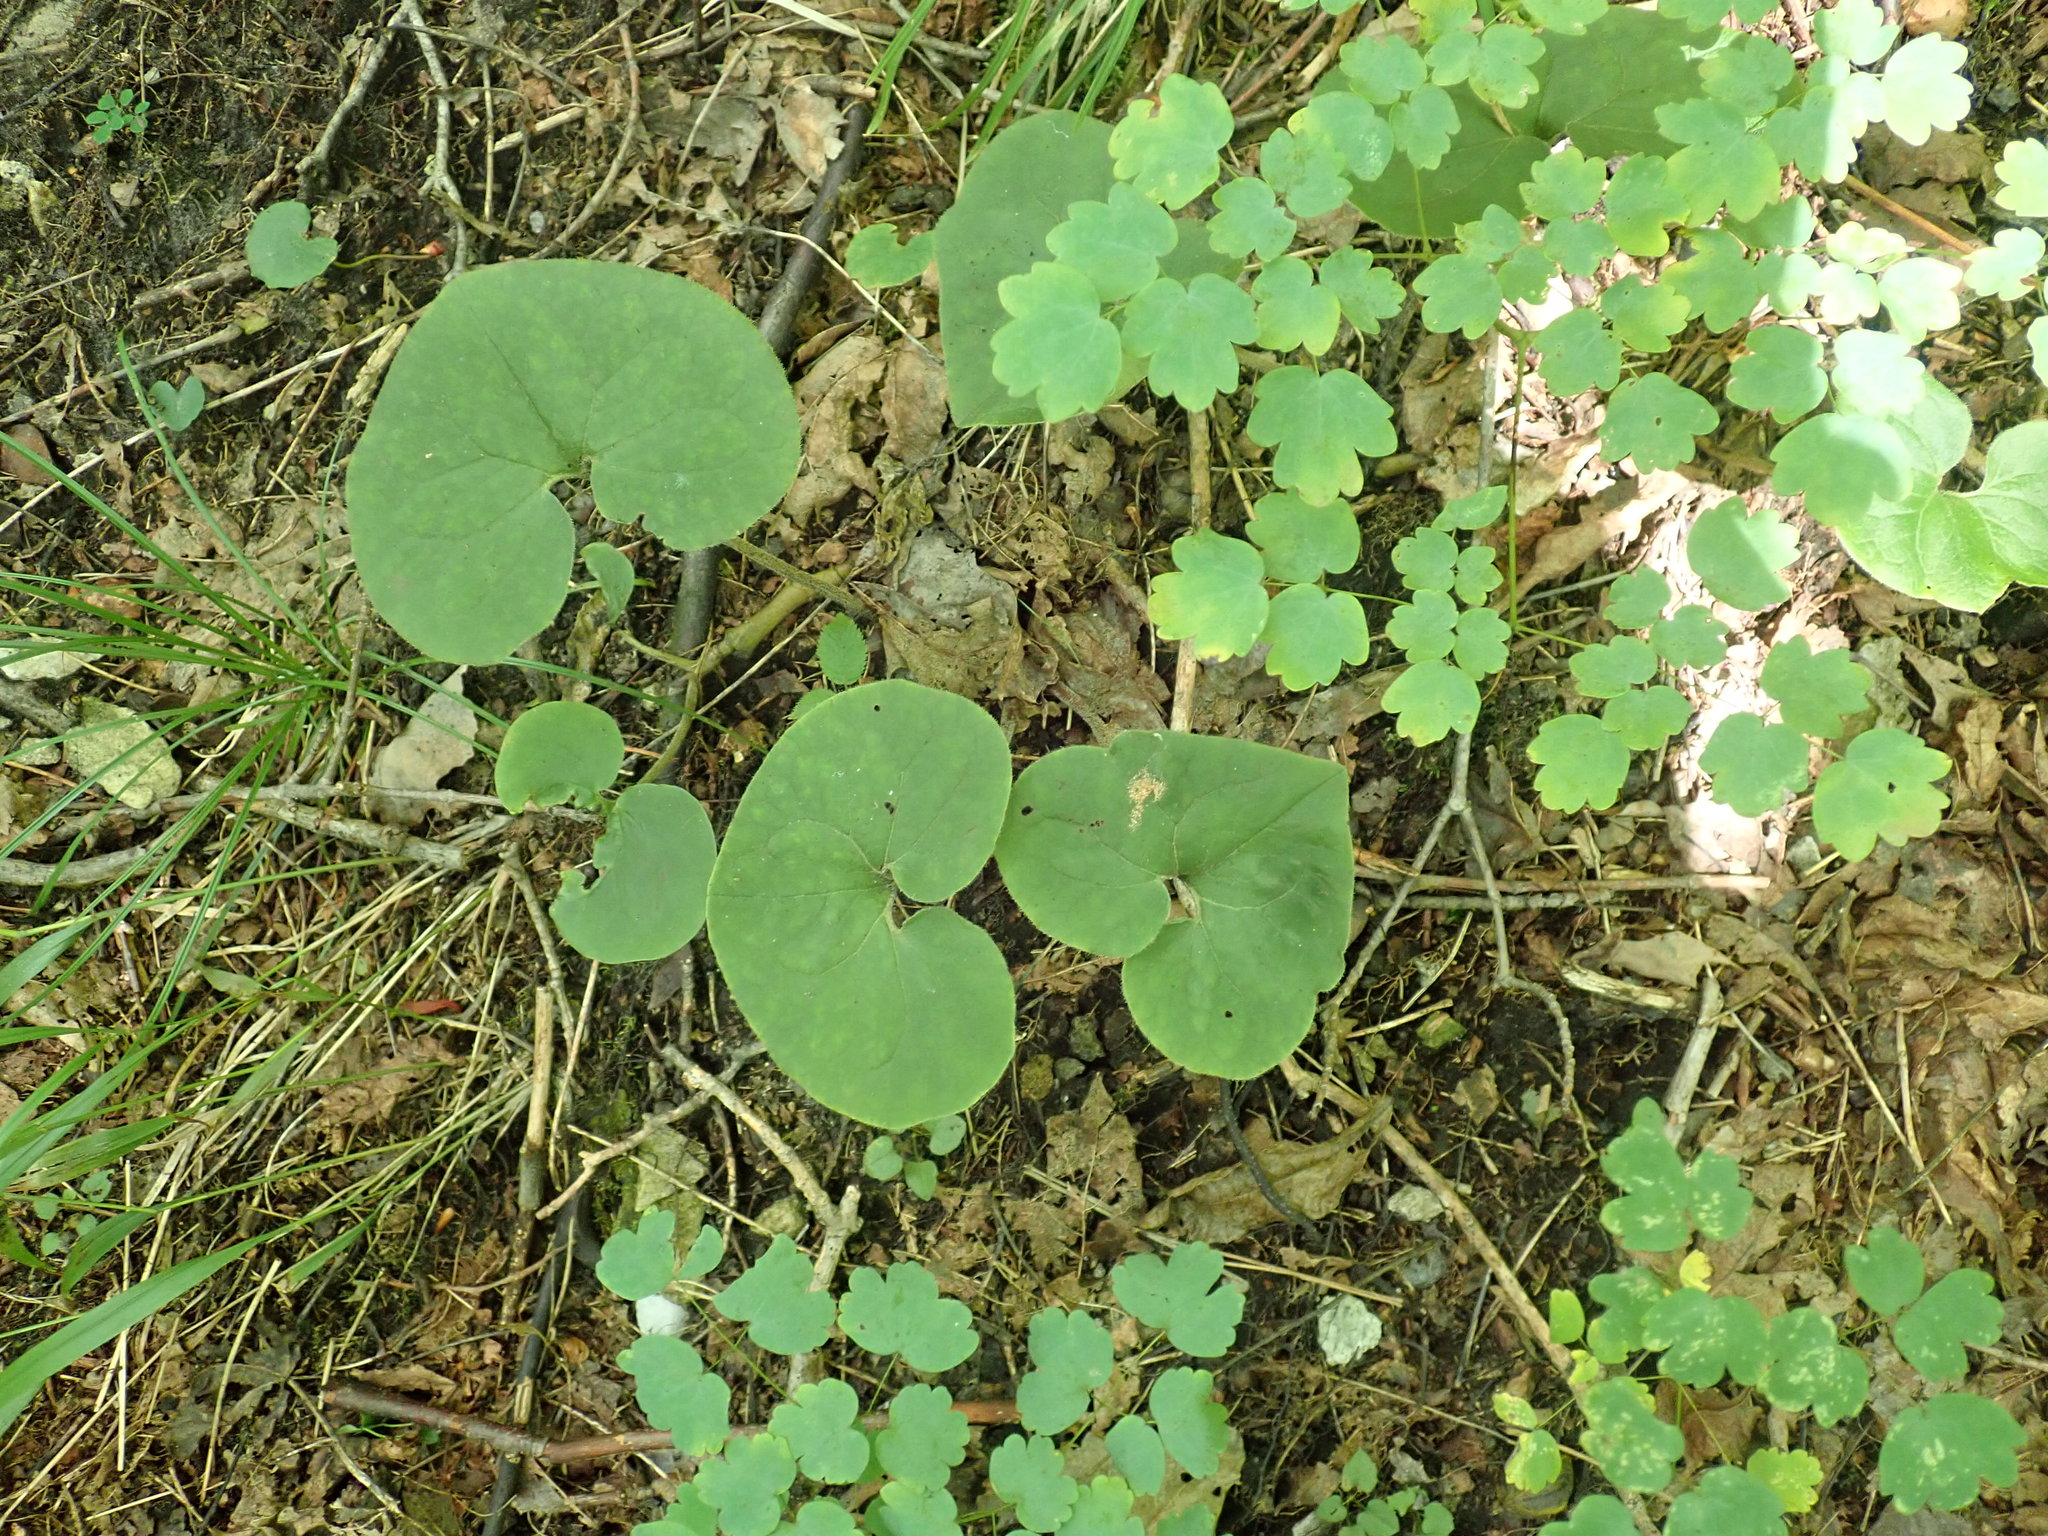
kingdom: Plantae
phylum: Tracheophyta
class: Magnoliopsida
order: Piperales
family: Aristolochiaceae
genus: Asarum
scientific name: Asarum canadense
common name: Wild ginger
